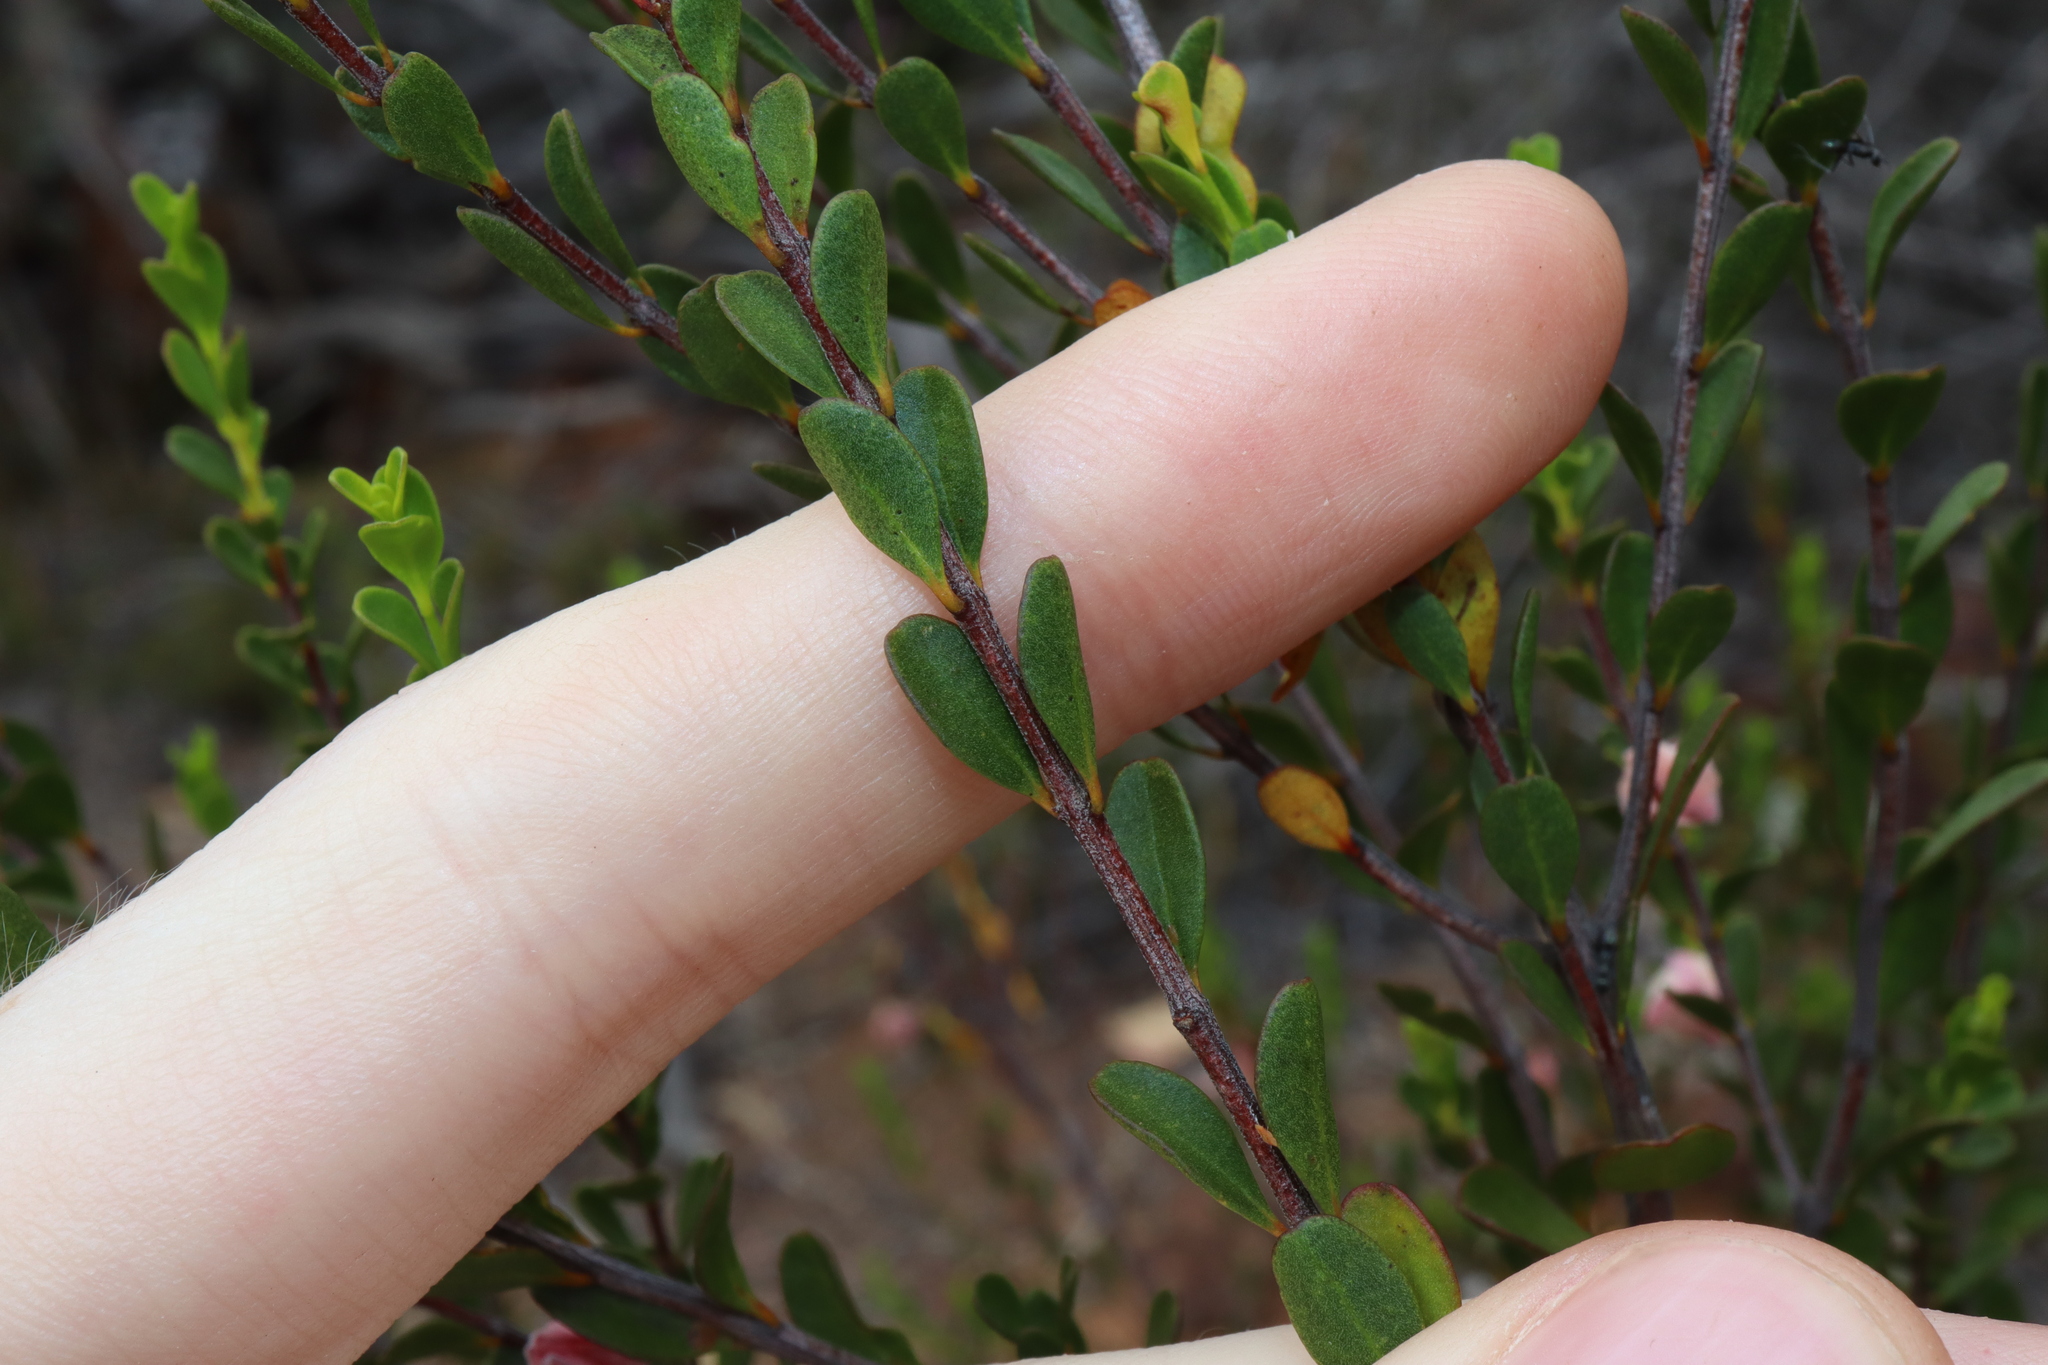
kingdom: Plantae
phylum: Tracheophyta
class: Magnoliopsida
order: Sapindales
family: Rutaceae
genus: Boronia
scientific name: Boronia ternata
